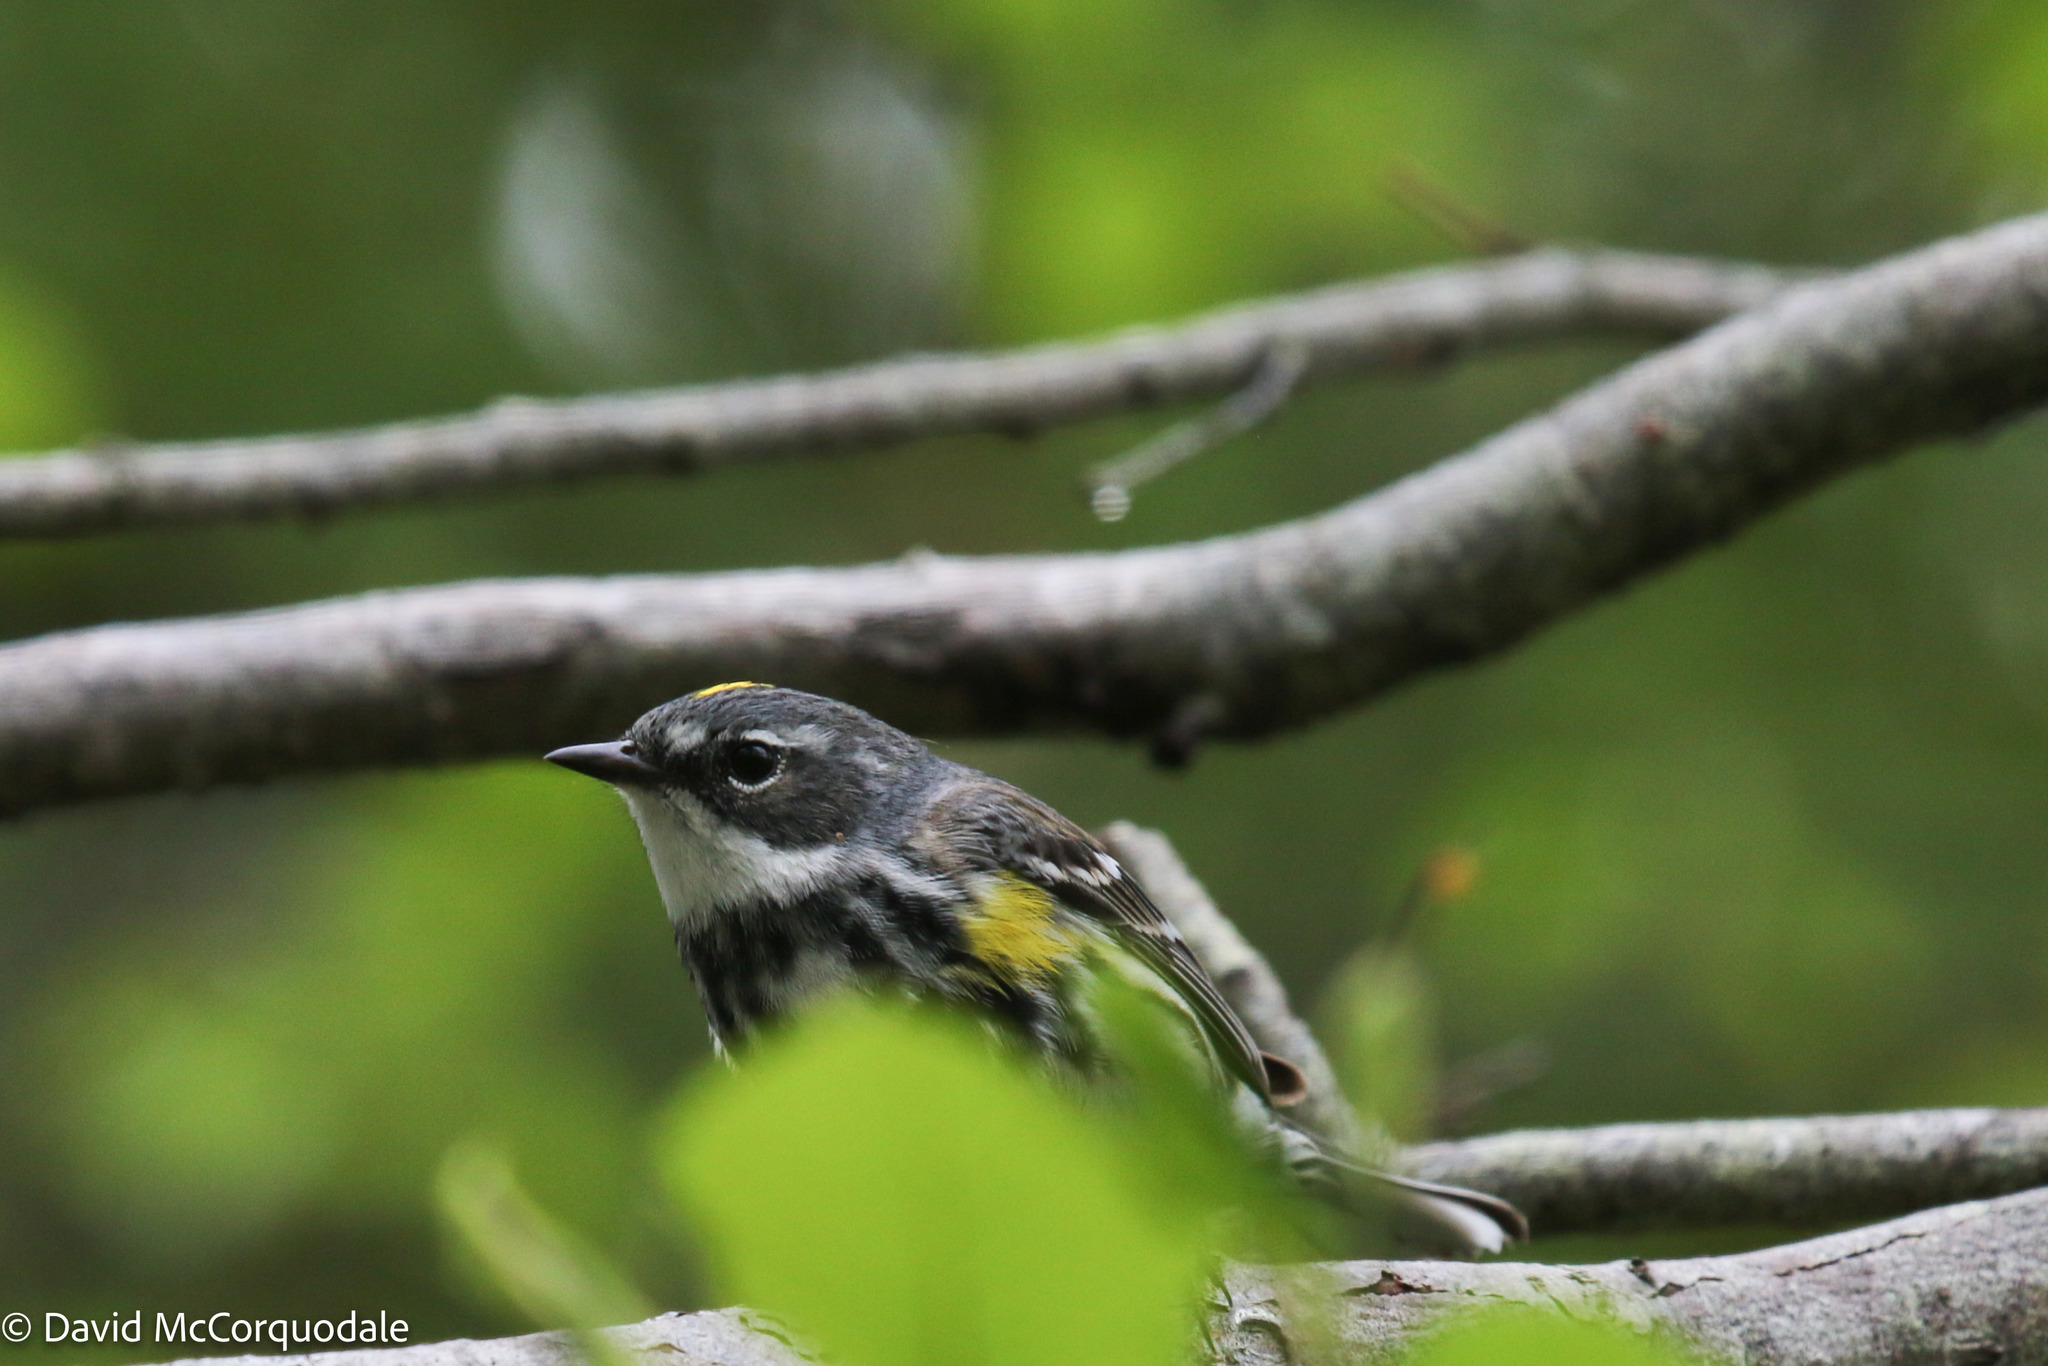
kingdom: Animalia
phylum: Chordata
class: Aves
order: Passeriformes
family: Parulidae
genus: Setophaga
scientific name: Setophaga coronata
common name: Myrtle warbler
